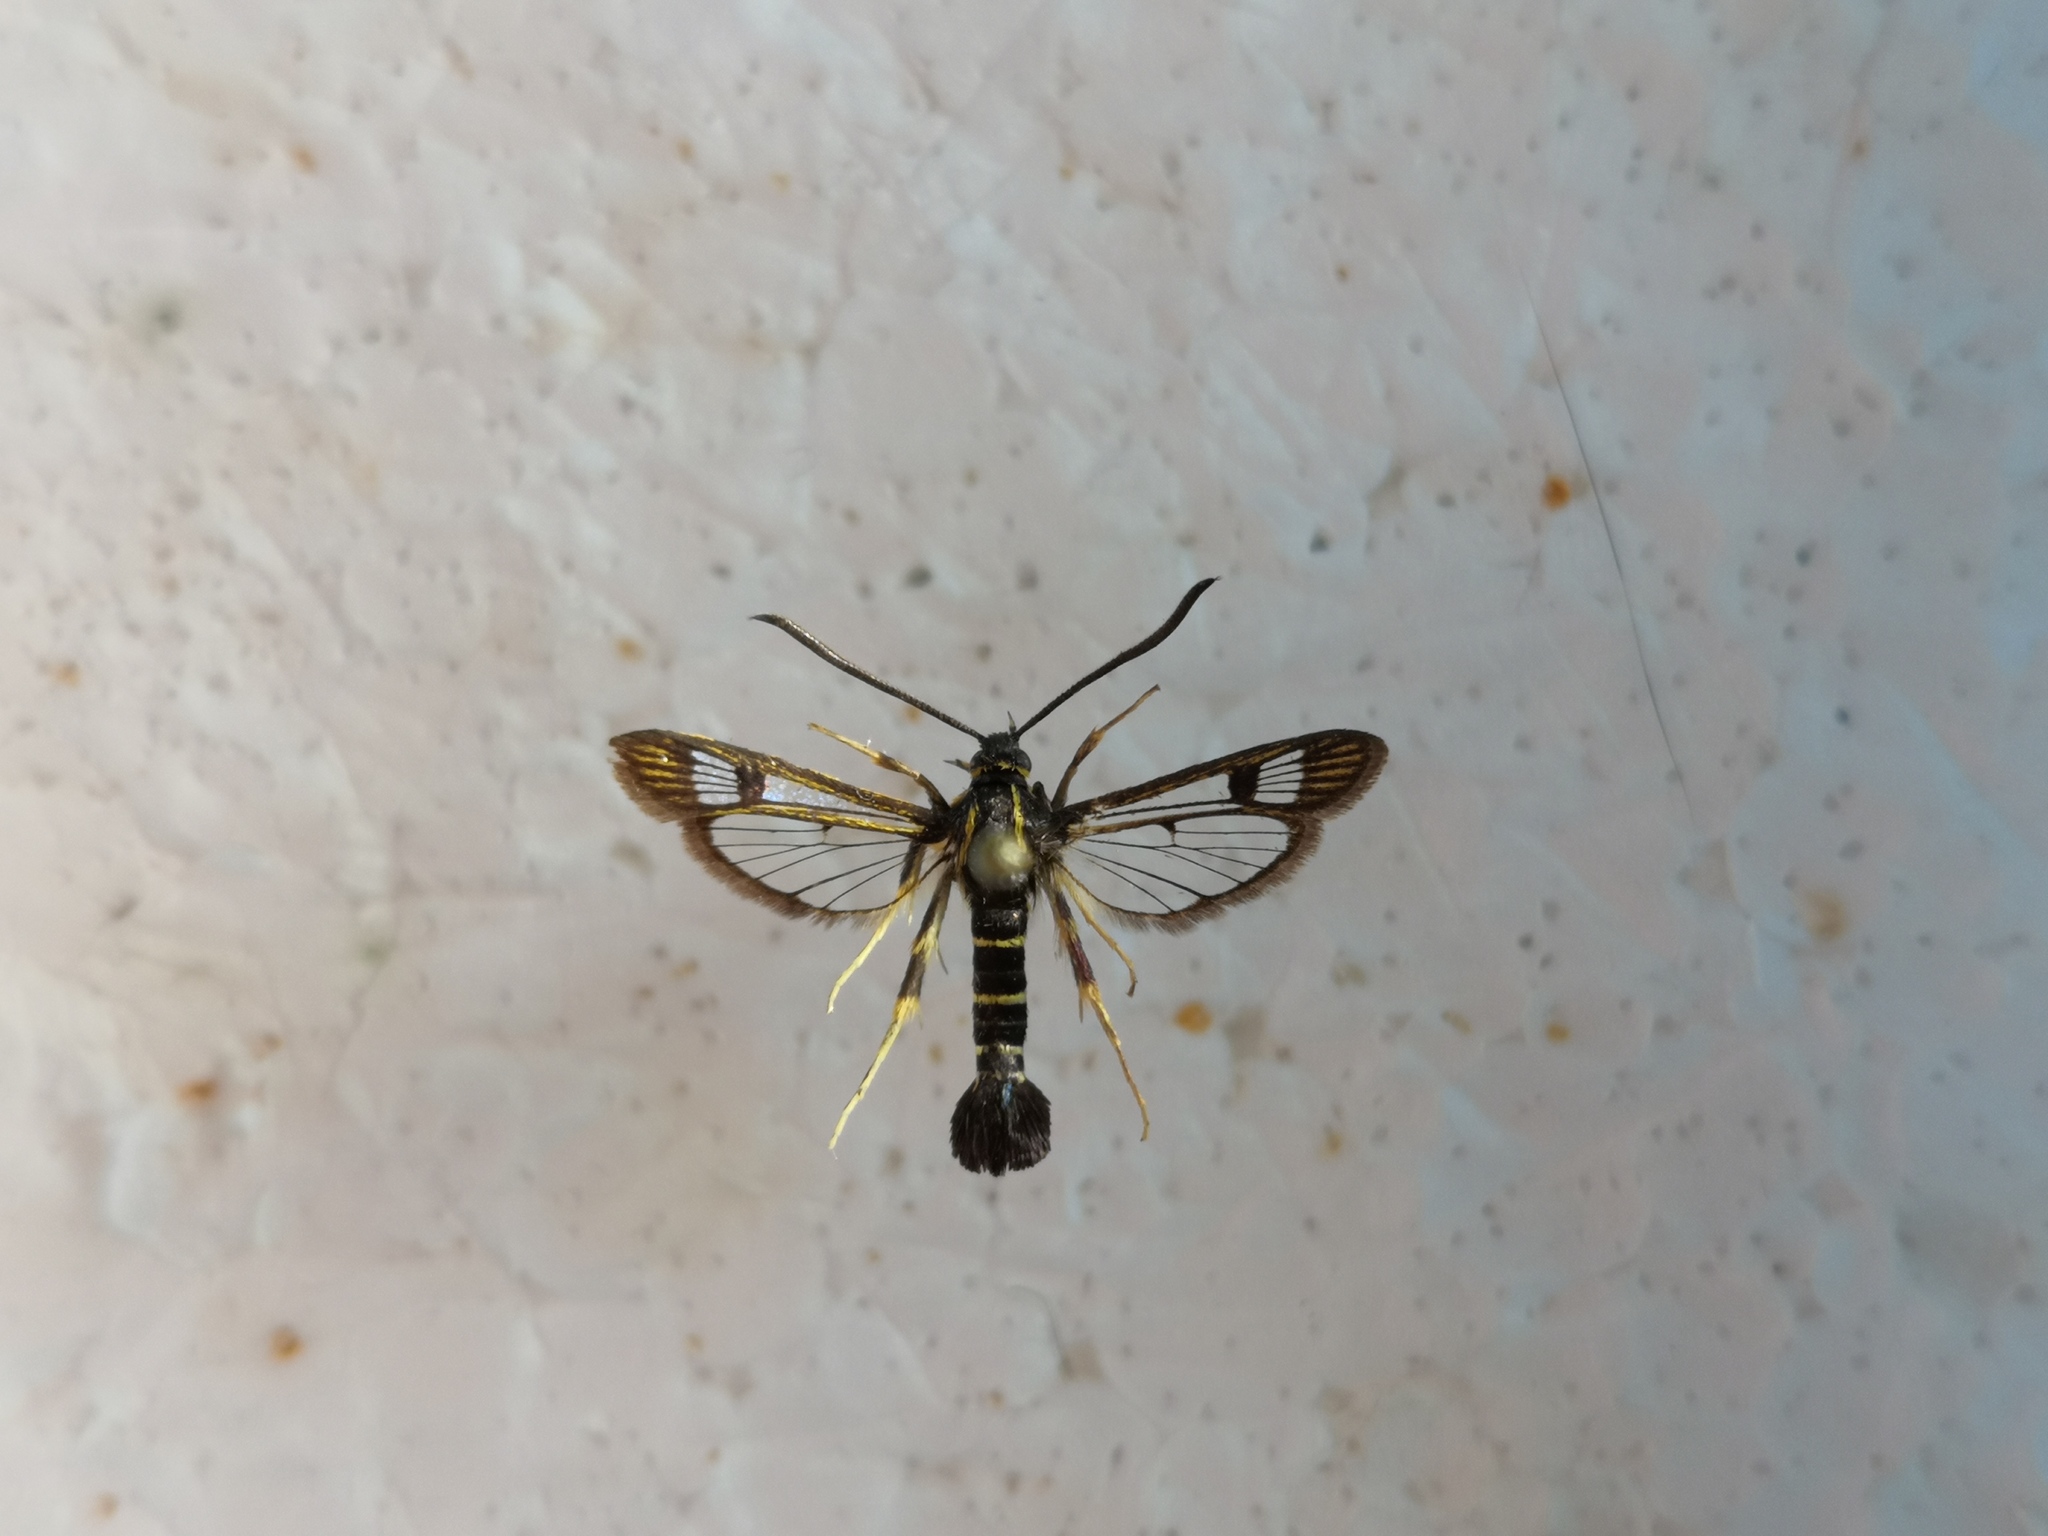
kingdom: Animalia
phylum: Arthropoda
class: Insecta
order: Lepidoptera
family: Sesiidae
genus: Synanthedon
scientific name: Synanthedon tipuliformis
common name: Currant clearwing
